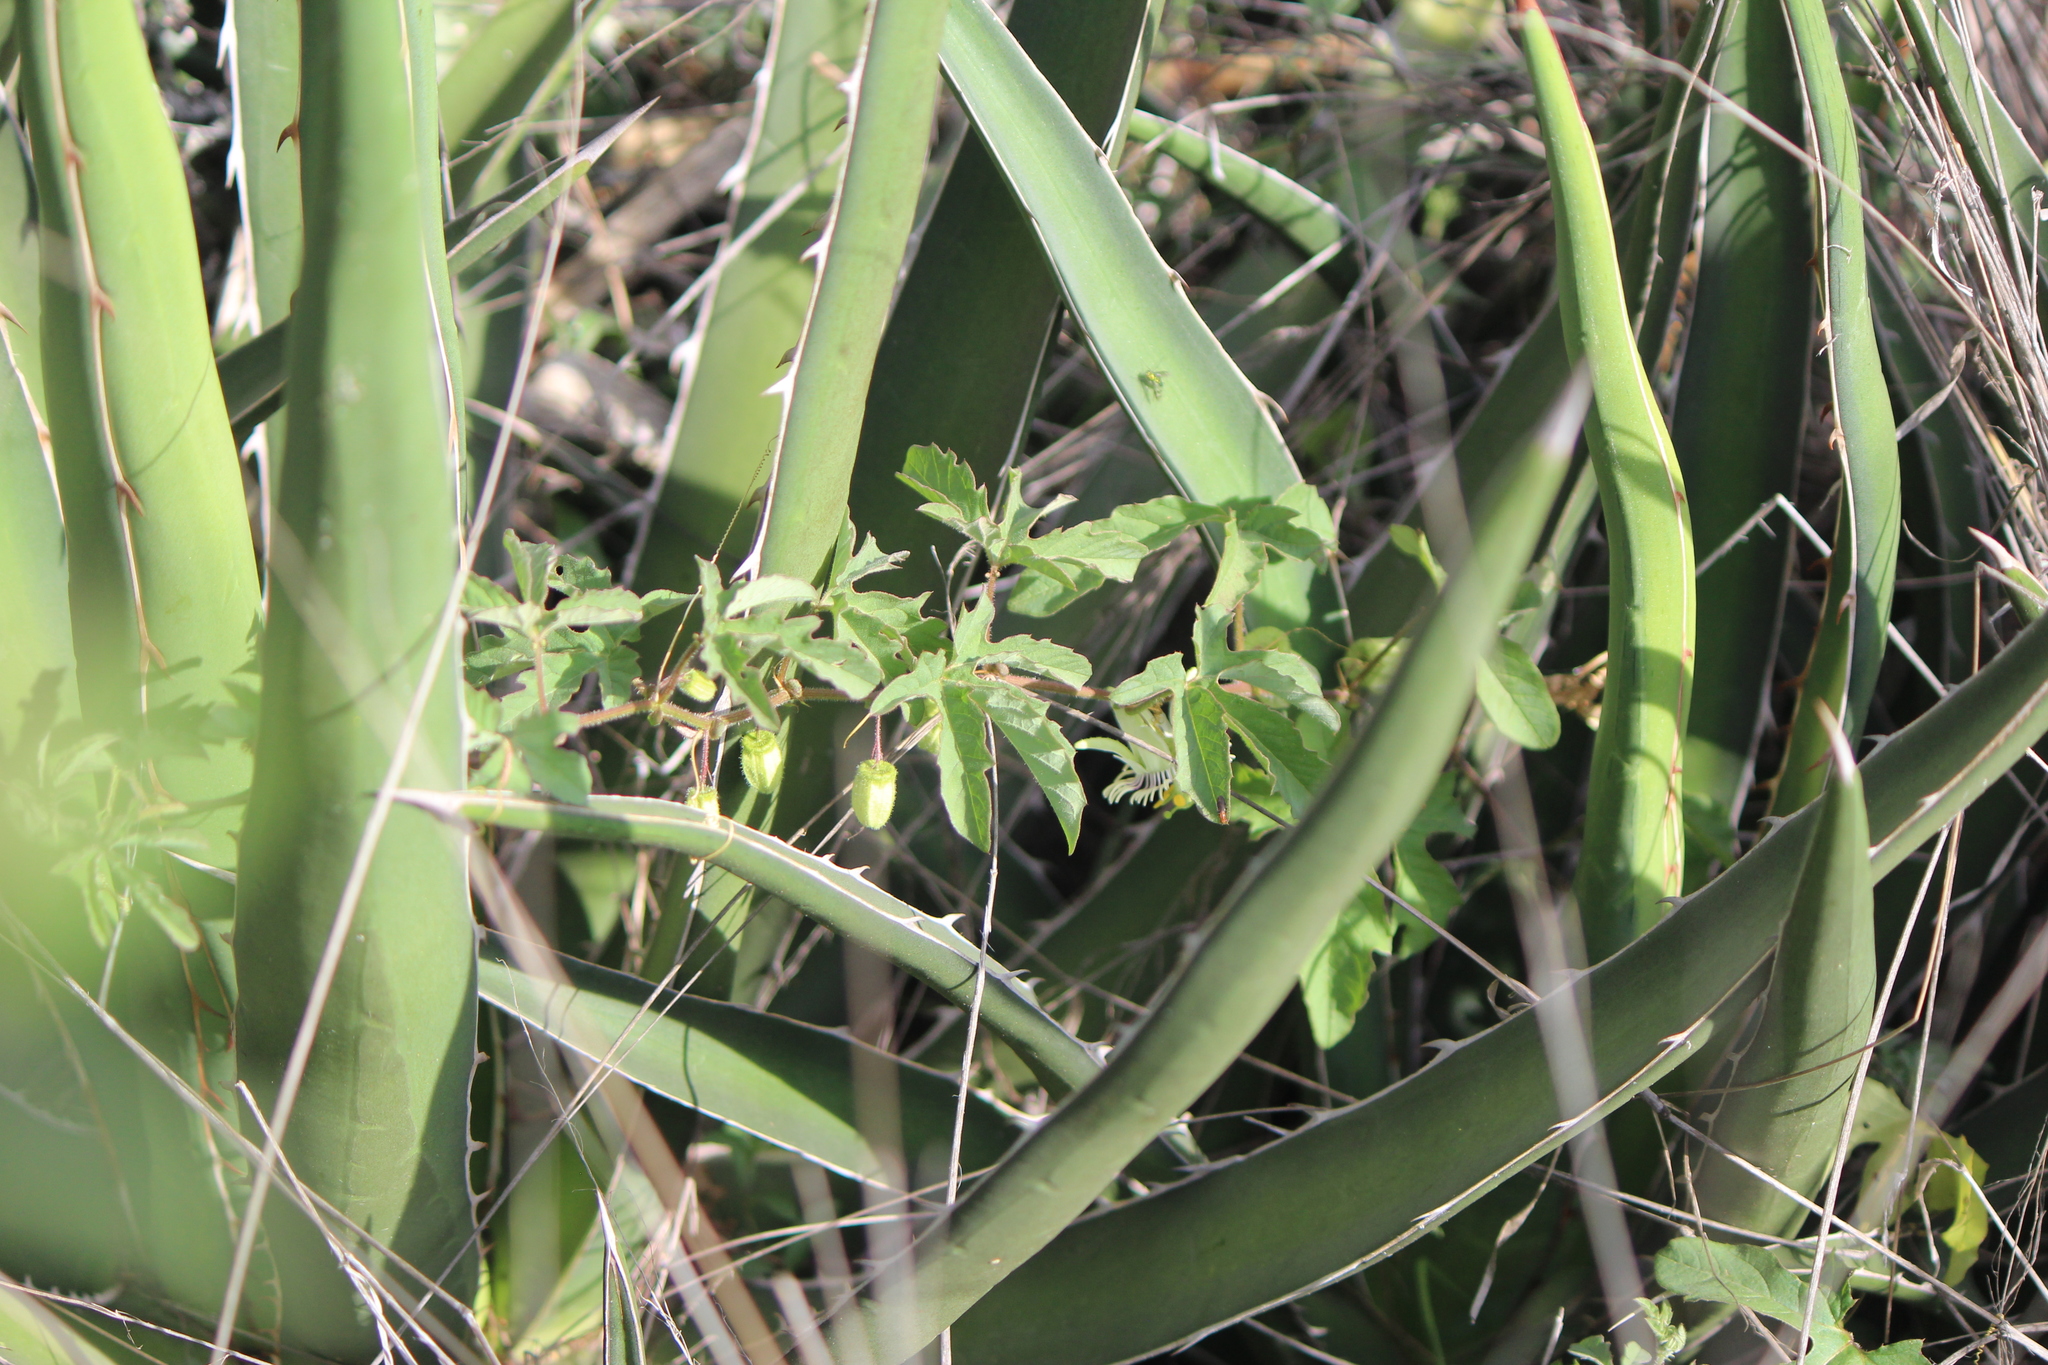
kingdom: Plantae
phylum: Tracheophyta
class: Magnoliopsida
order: Malpighiales
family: Passifloraceae
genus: Passiflora
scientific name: Passiflora bryonioides
